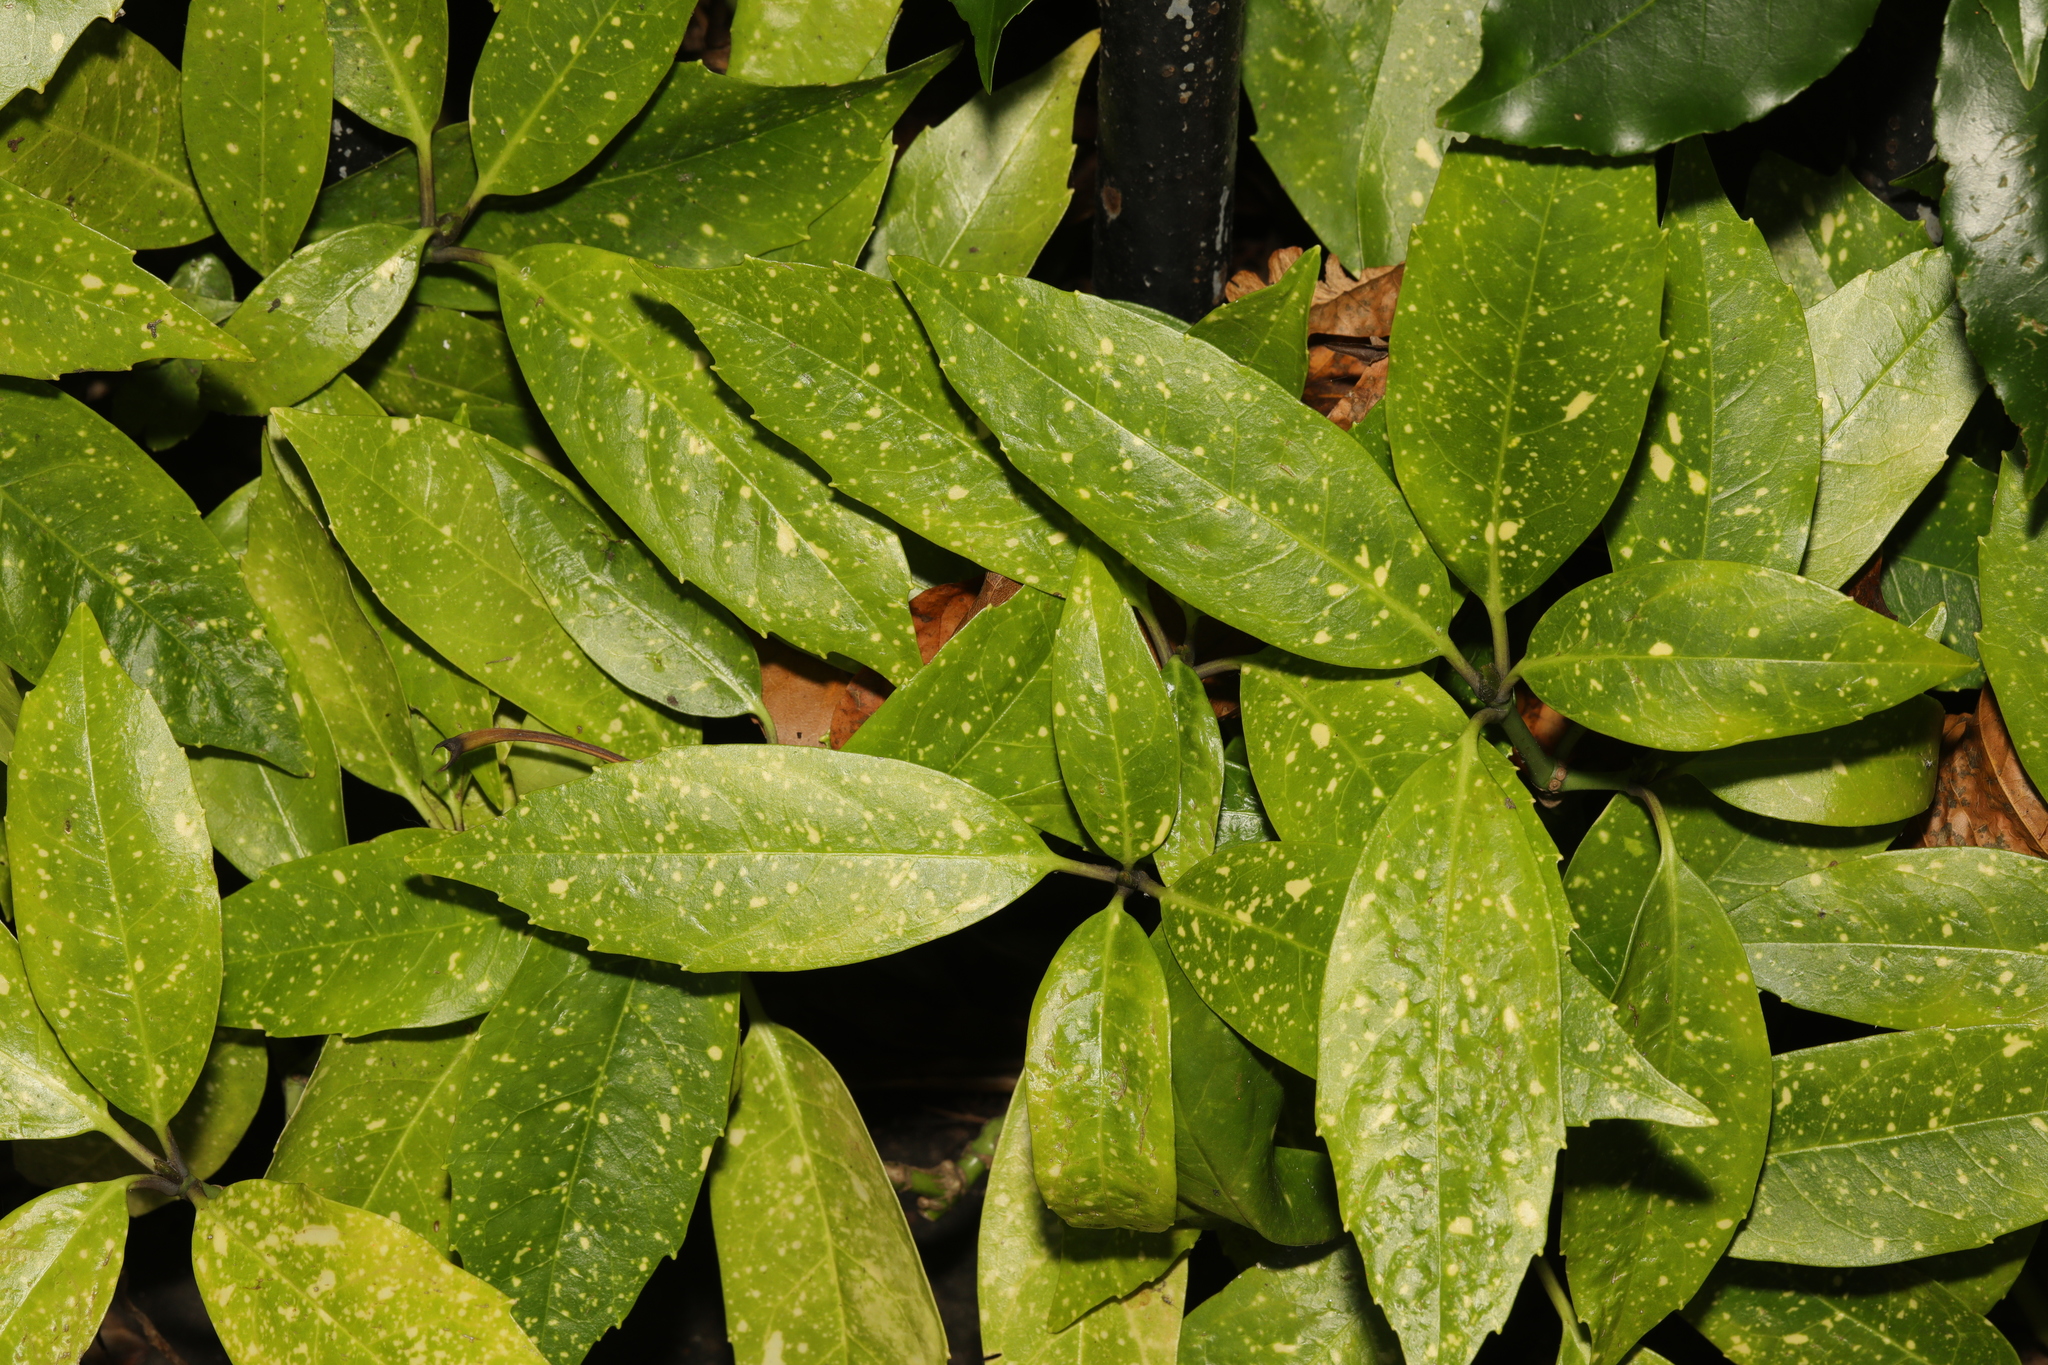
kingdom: Plantae
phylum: Tracheophyta
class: Magnoliopsida
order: Garryales
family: Garryaceae
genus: Aucuba
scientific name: Aucuba japonica
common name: Spotted-laurel
